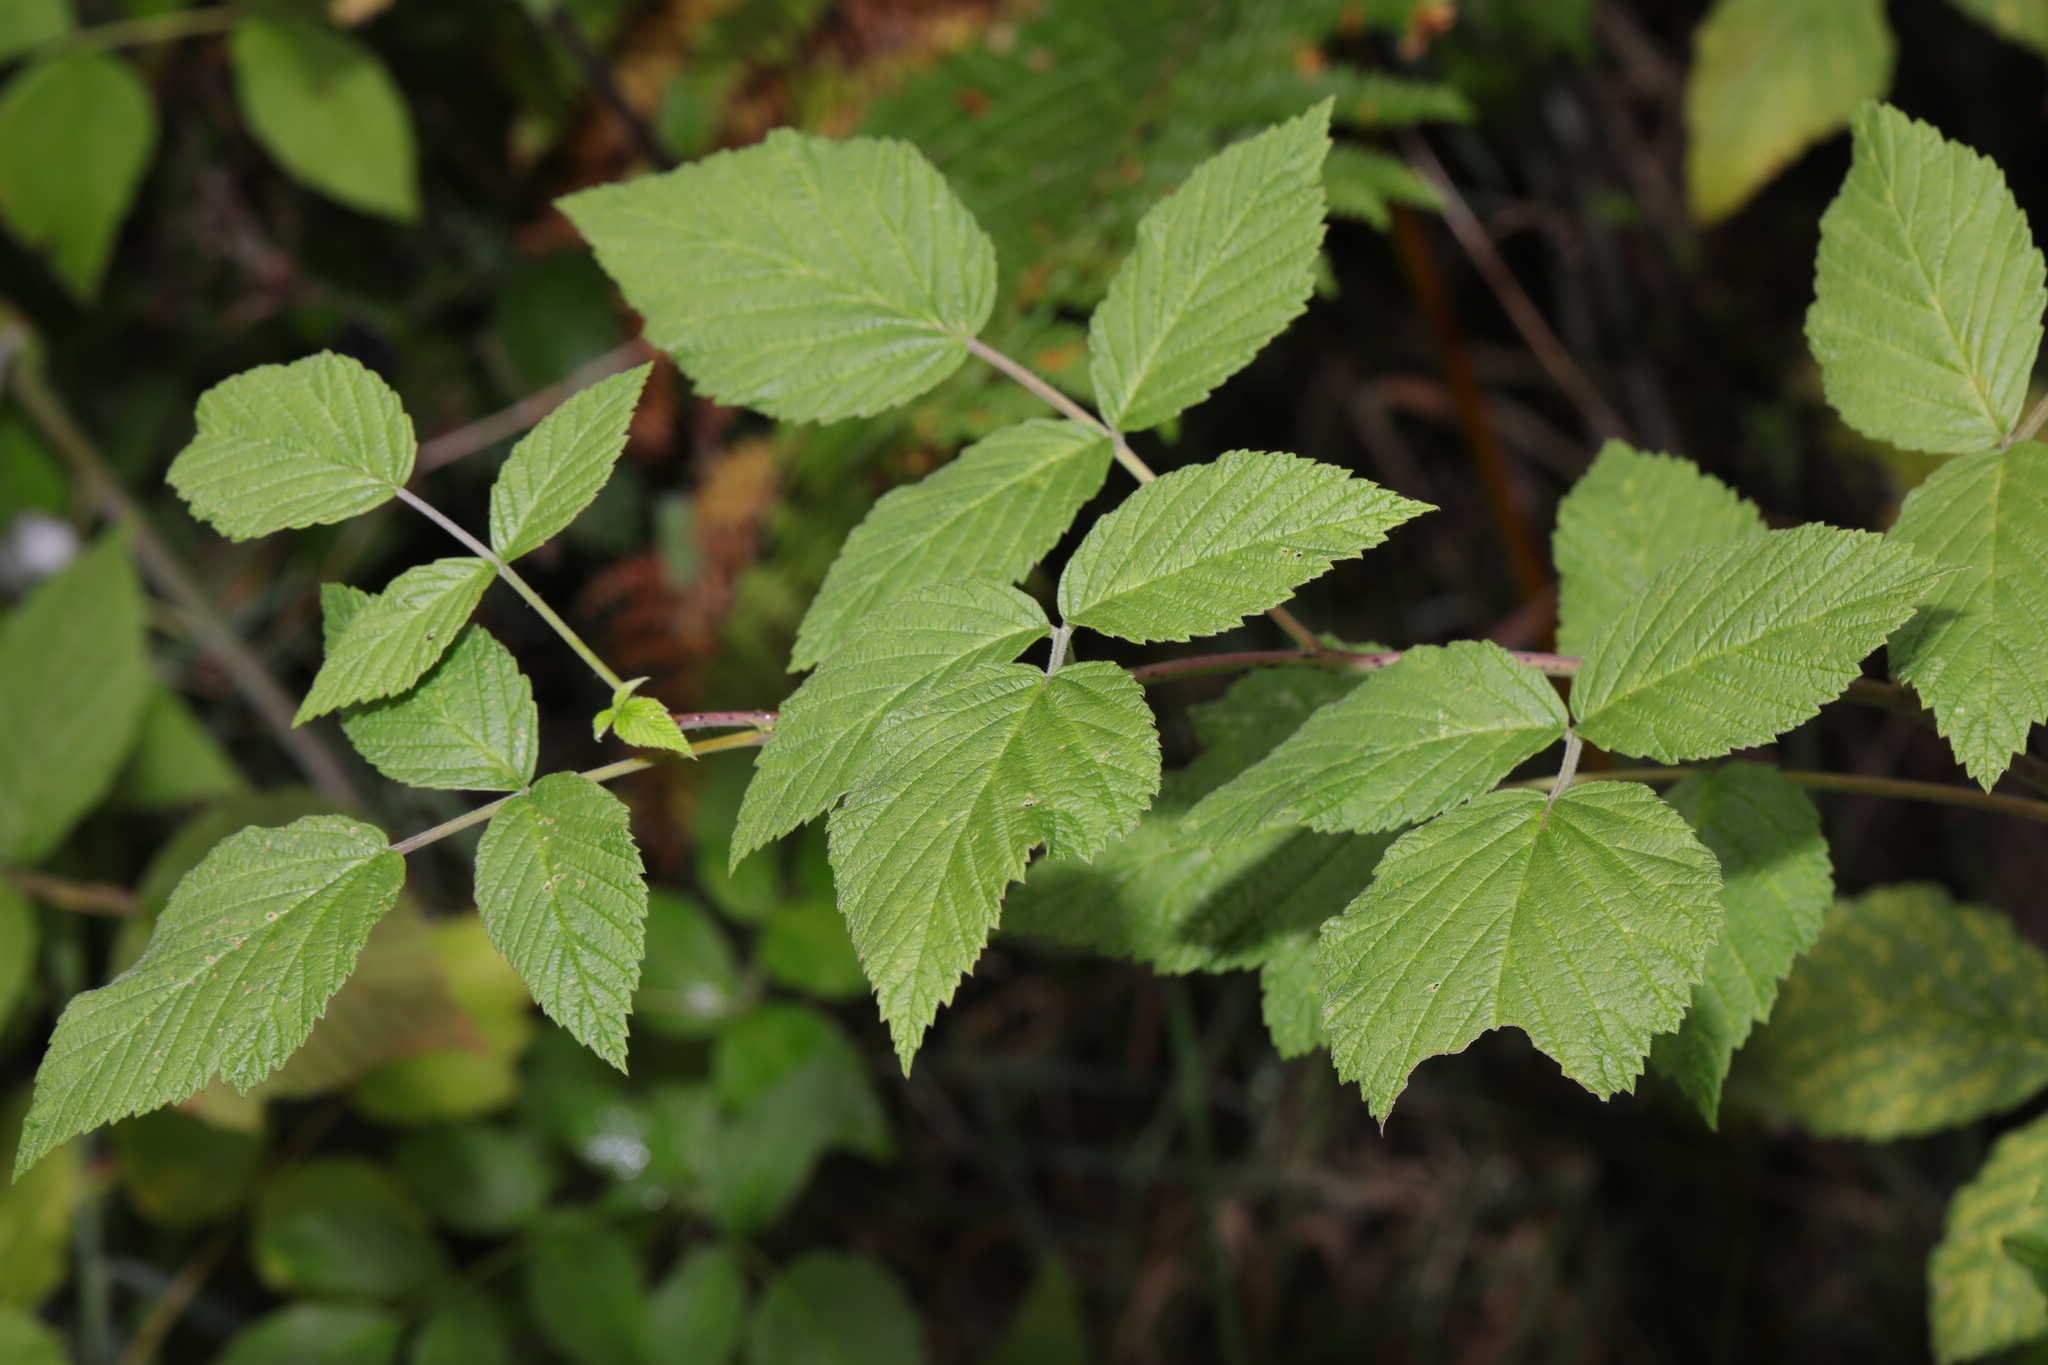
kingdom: Plantae
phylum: Tracheophyta
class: Magnoliopsida
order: Rosales
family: Rosaceae
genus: Rubus
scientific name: Rubus idaeus
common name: Raspberry
